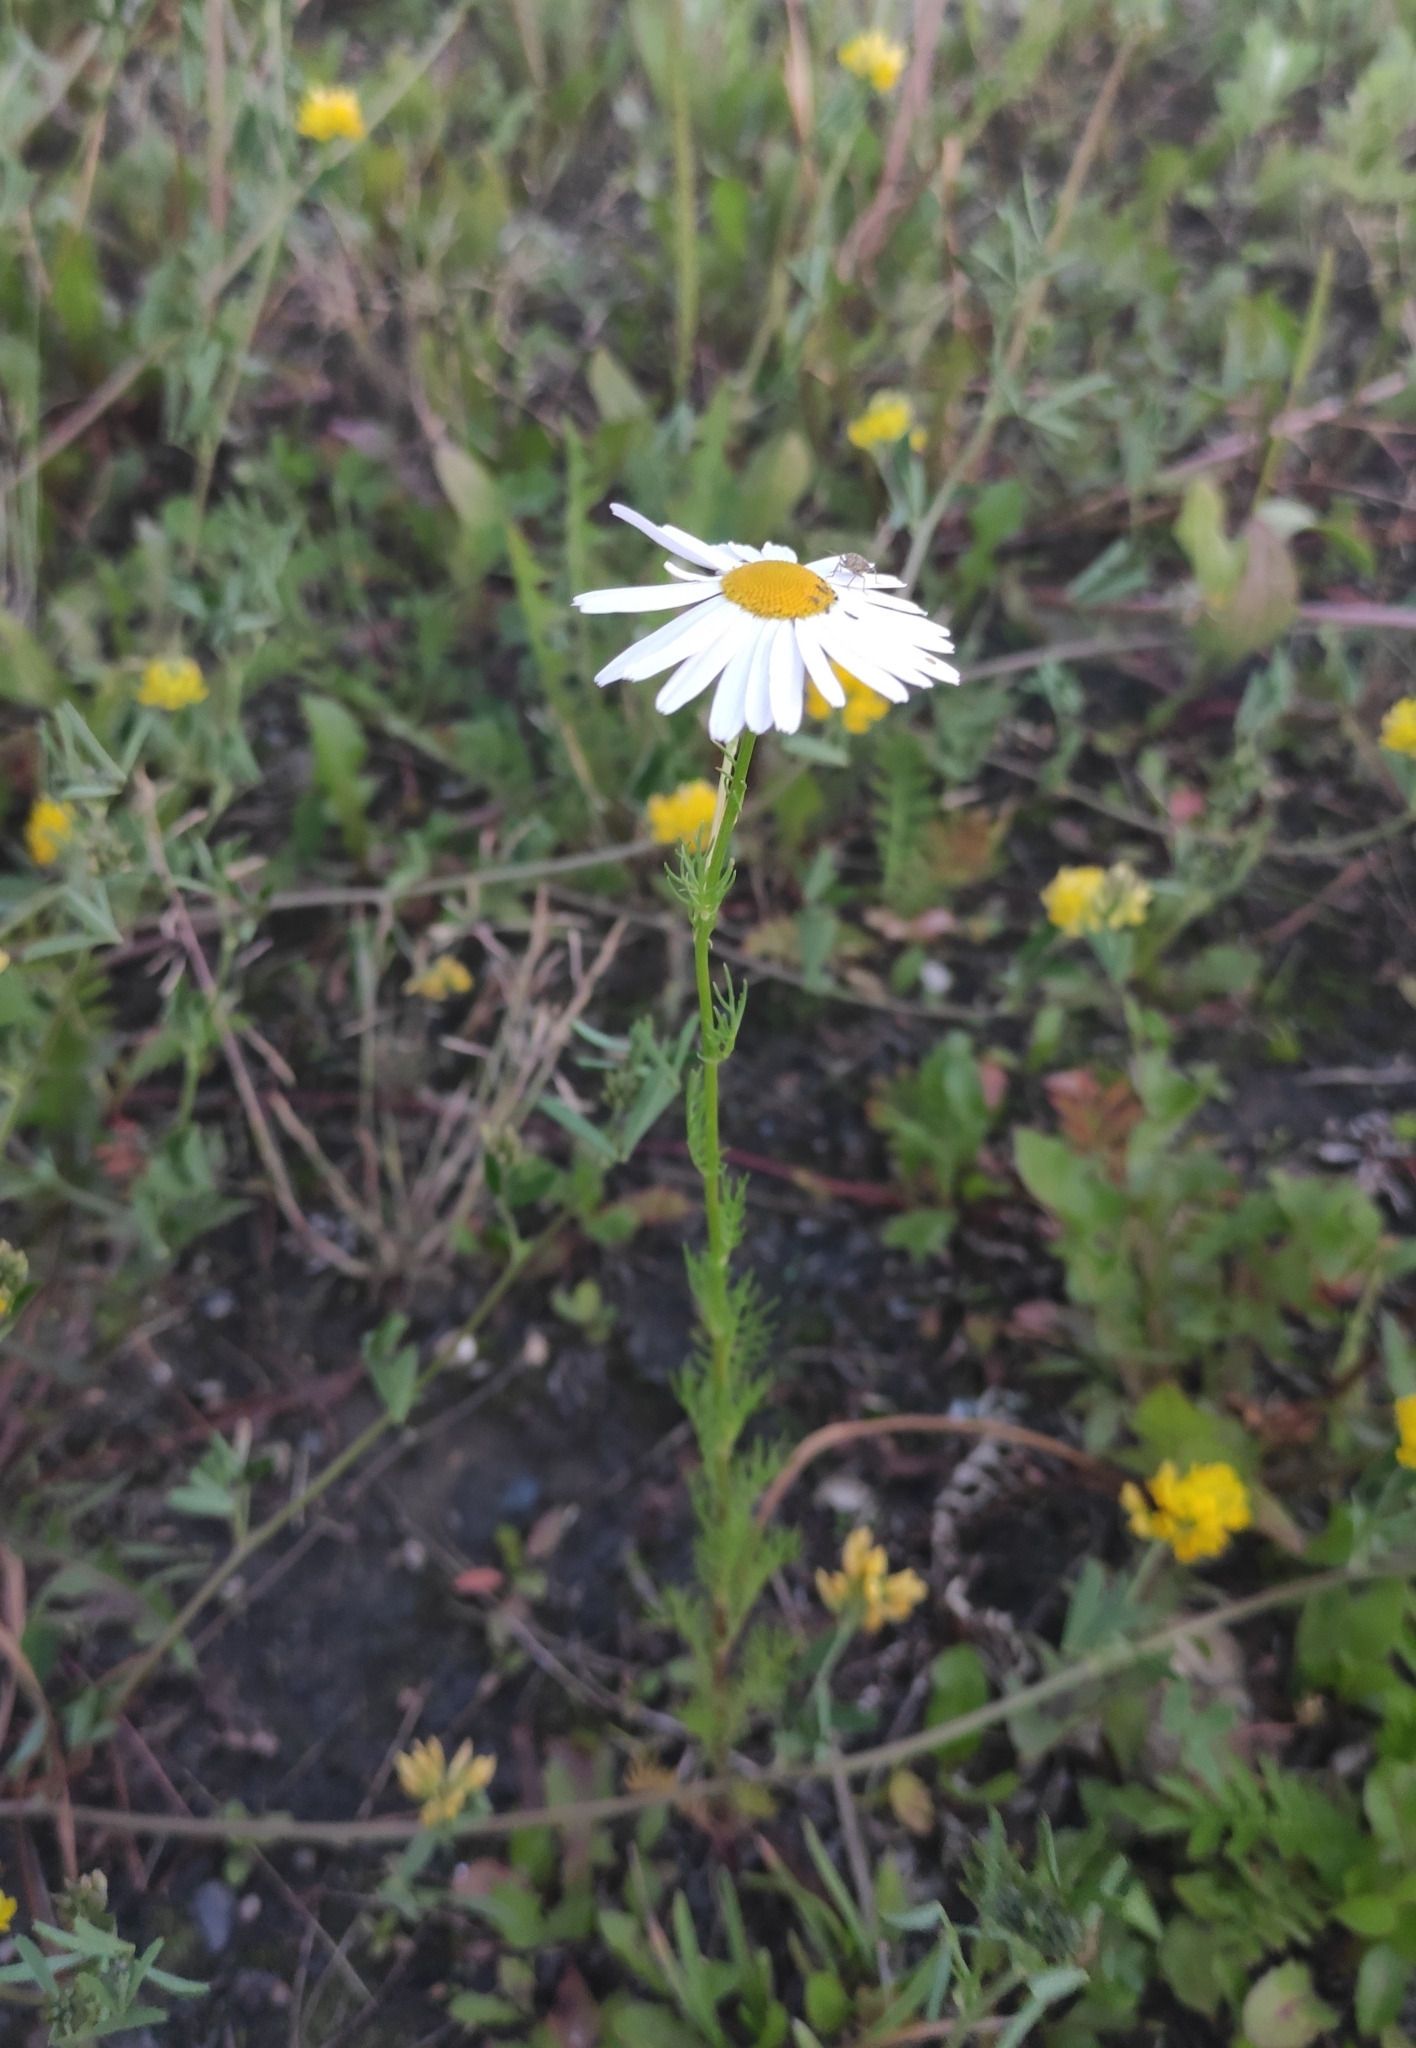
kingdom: Plantae
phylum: Tracheophyta
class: Magnoliopsida
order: Asterales
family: Asteraceae
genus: Tripleurospermum
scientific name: Tripleurospermum inodorum
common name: Scentless mayweed
